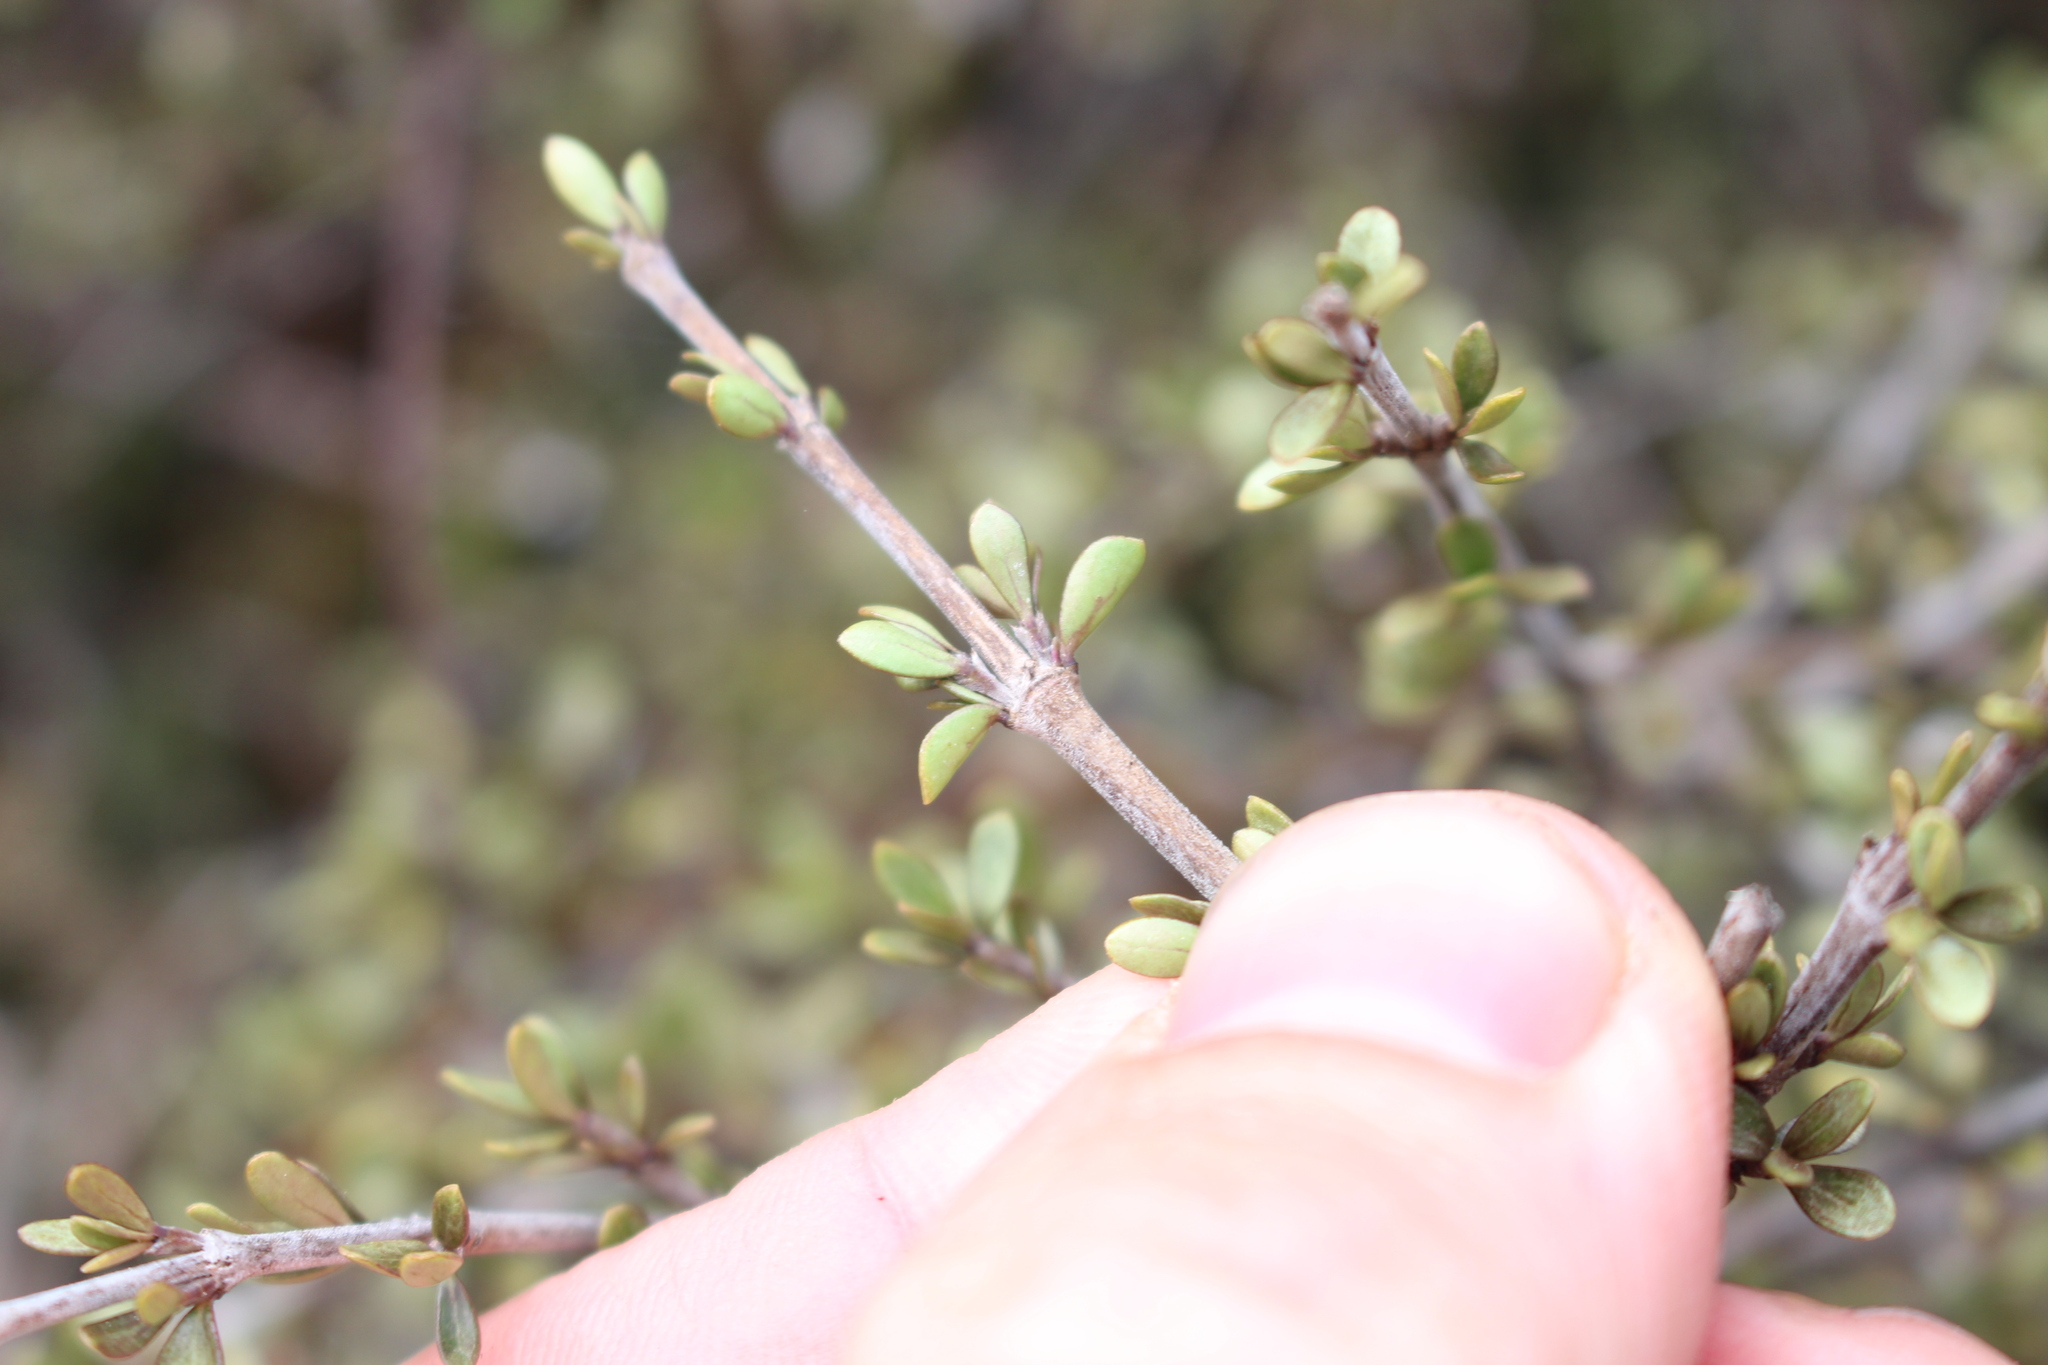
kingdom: Plantae
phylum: Tracheophyta
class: Magnoliopsida
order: Gentianales
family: Rubiaceae
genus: Coprosma
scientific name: Coprosma dumosa
